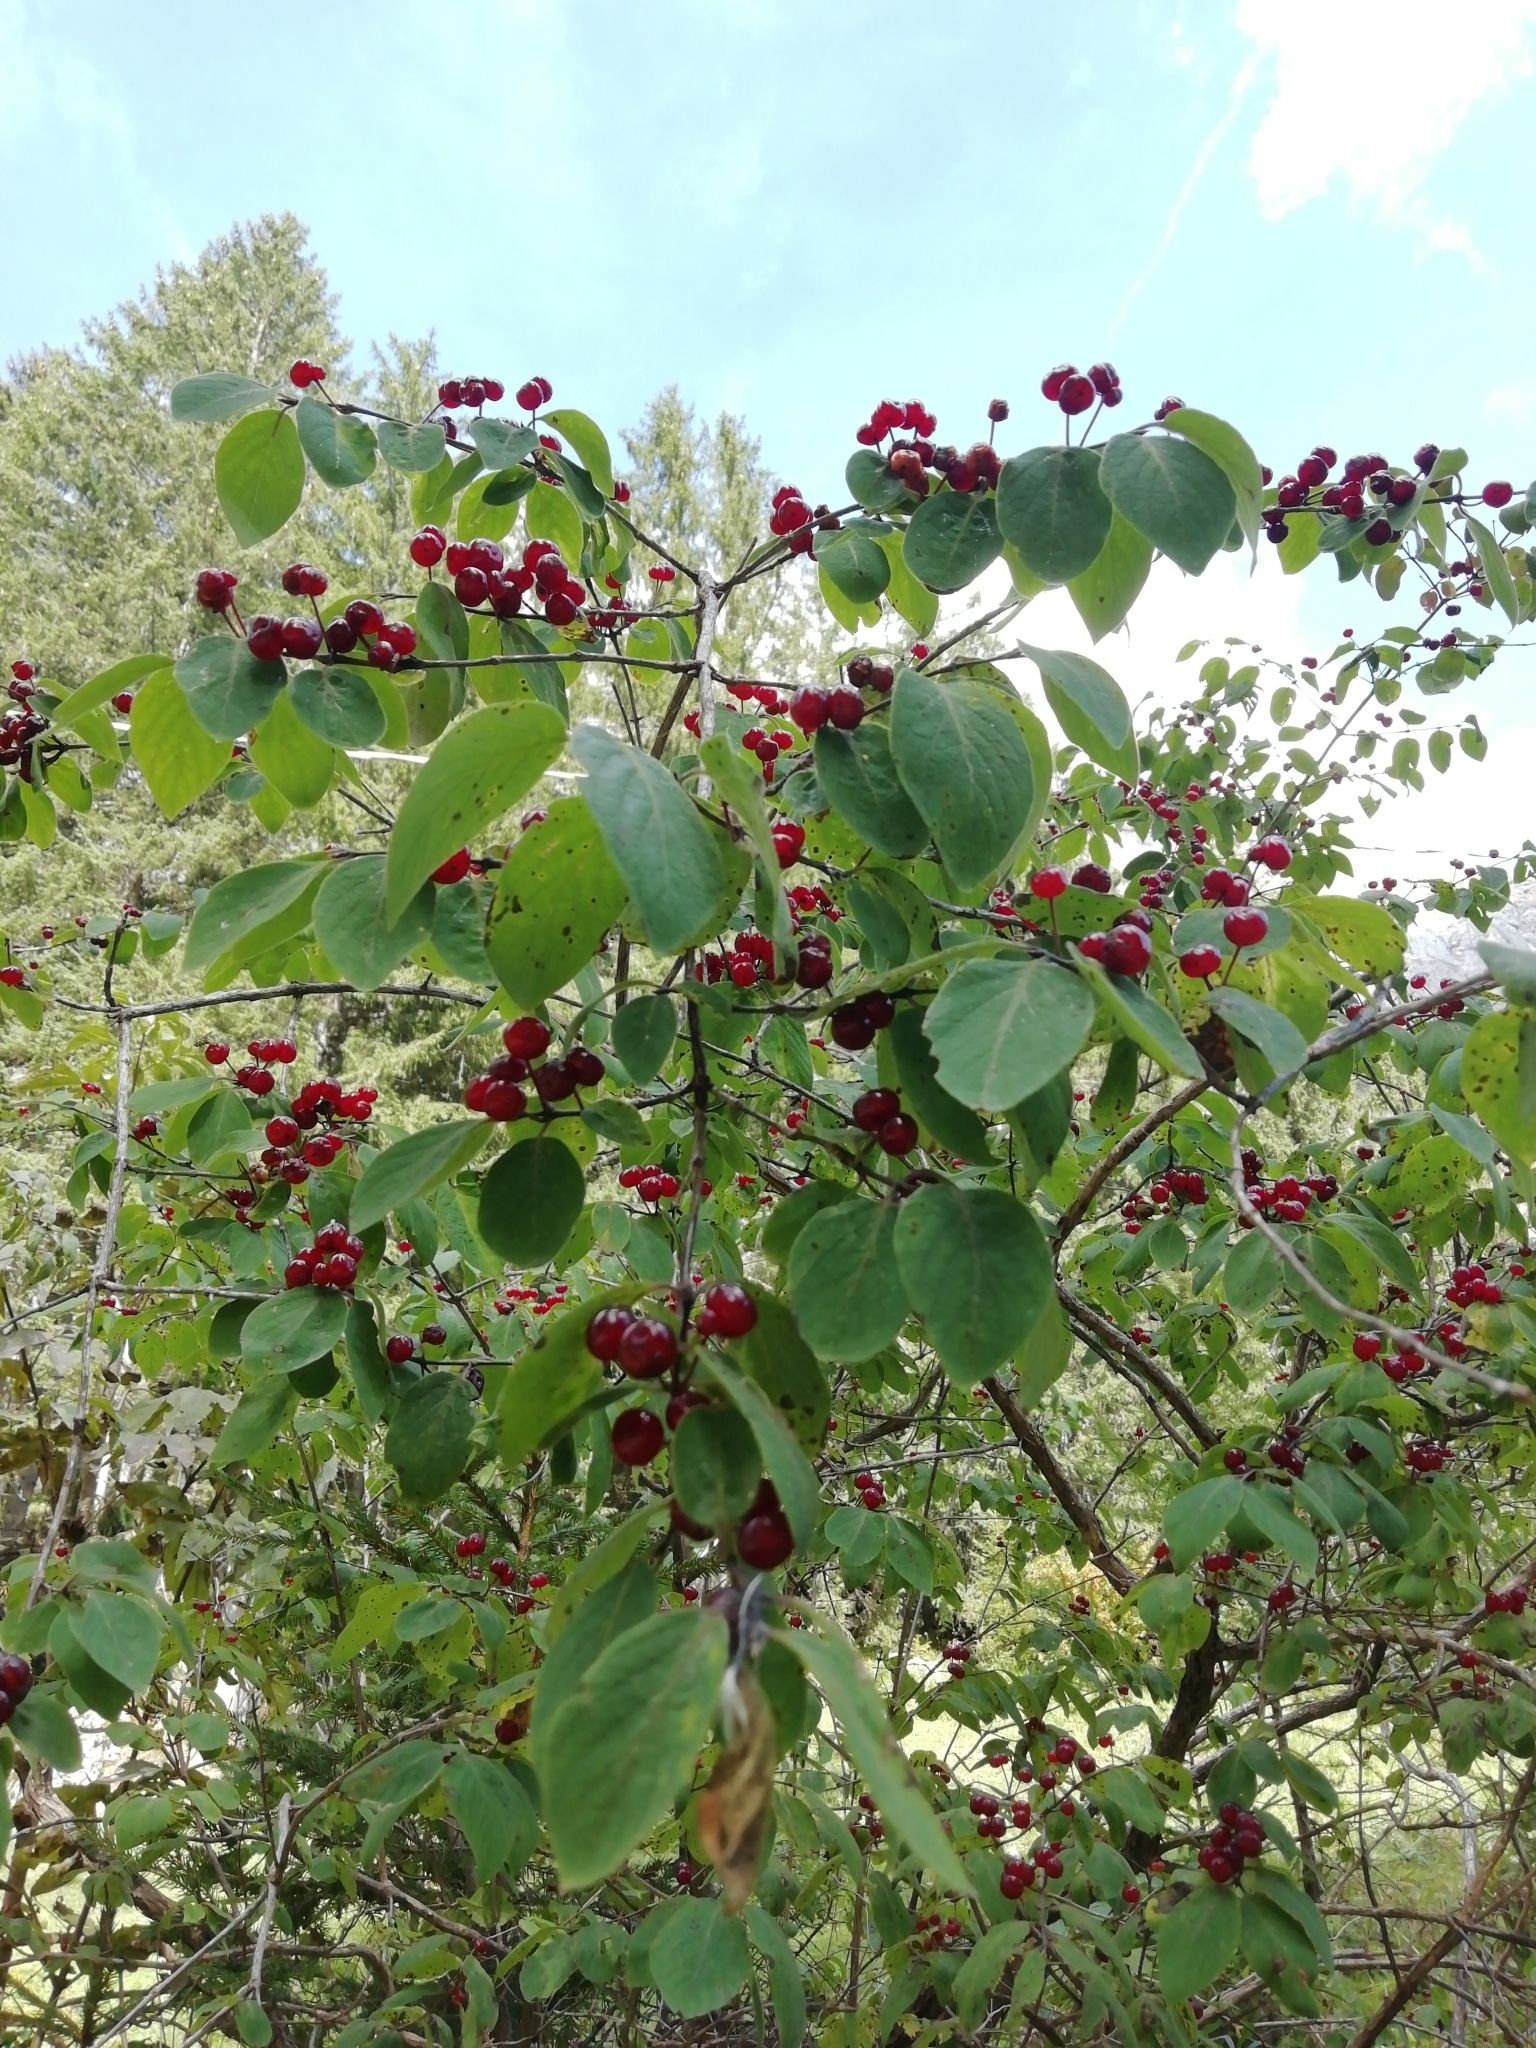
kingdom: Plantae
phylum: Tracheophyta
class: Magnoliopsida
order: Dipsacales
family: Caprifoliaceae
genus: Lonicera
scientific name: Lonicera xylosteum
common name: Fly honeysuckle
